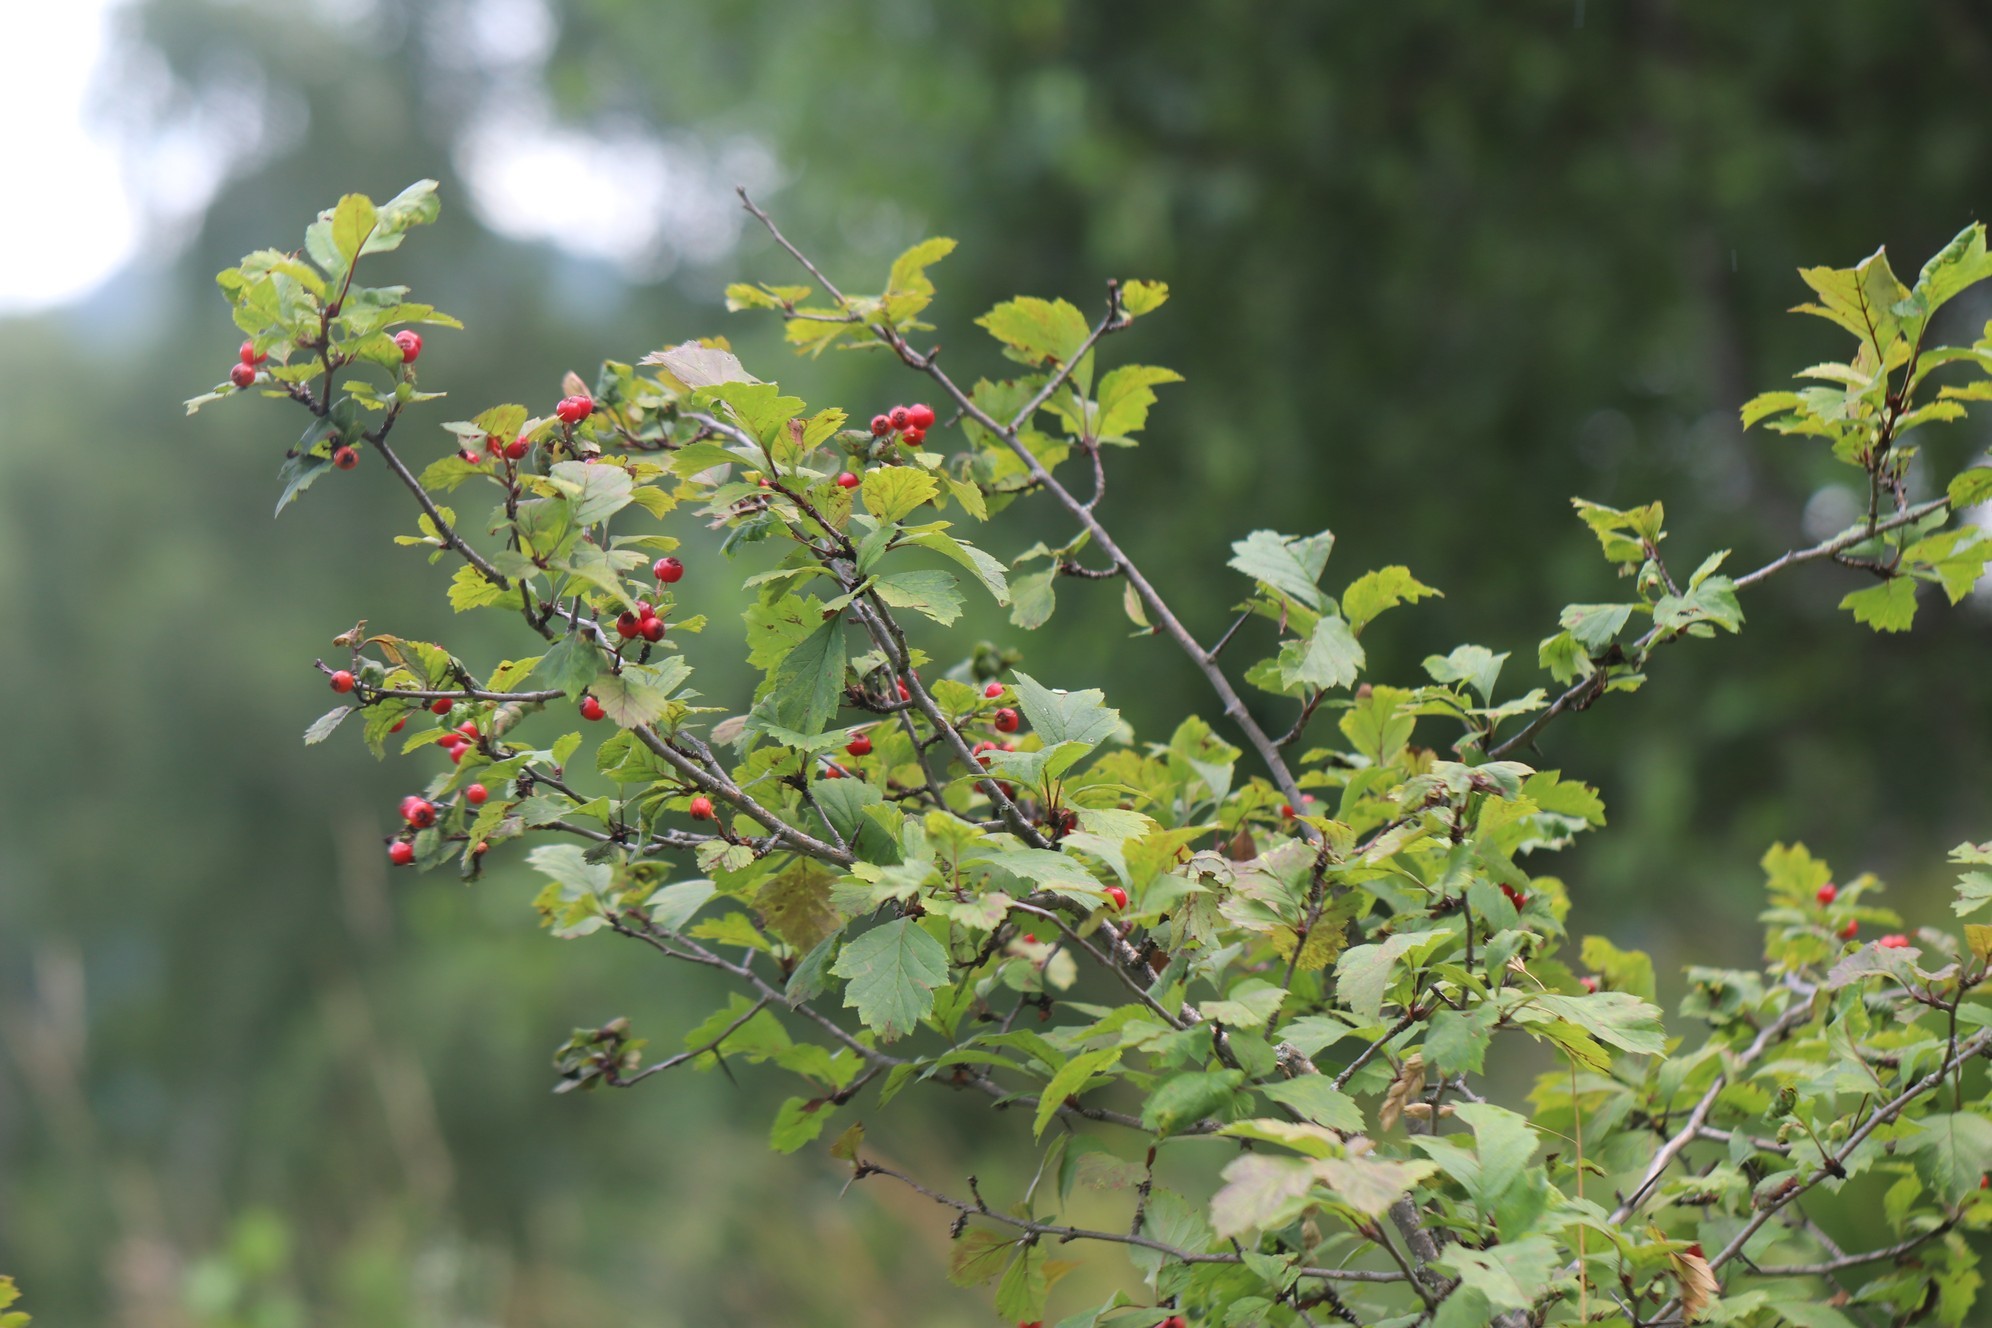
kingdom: Plantae
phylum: Tracheophyta
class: Magnoliopsida
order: Rosales
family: Rosaceae
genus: Crataegus
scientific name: Crataegus sanguinea
